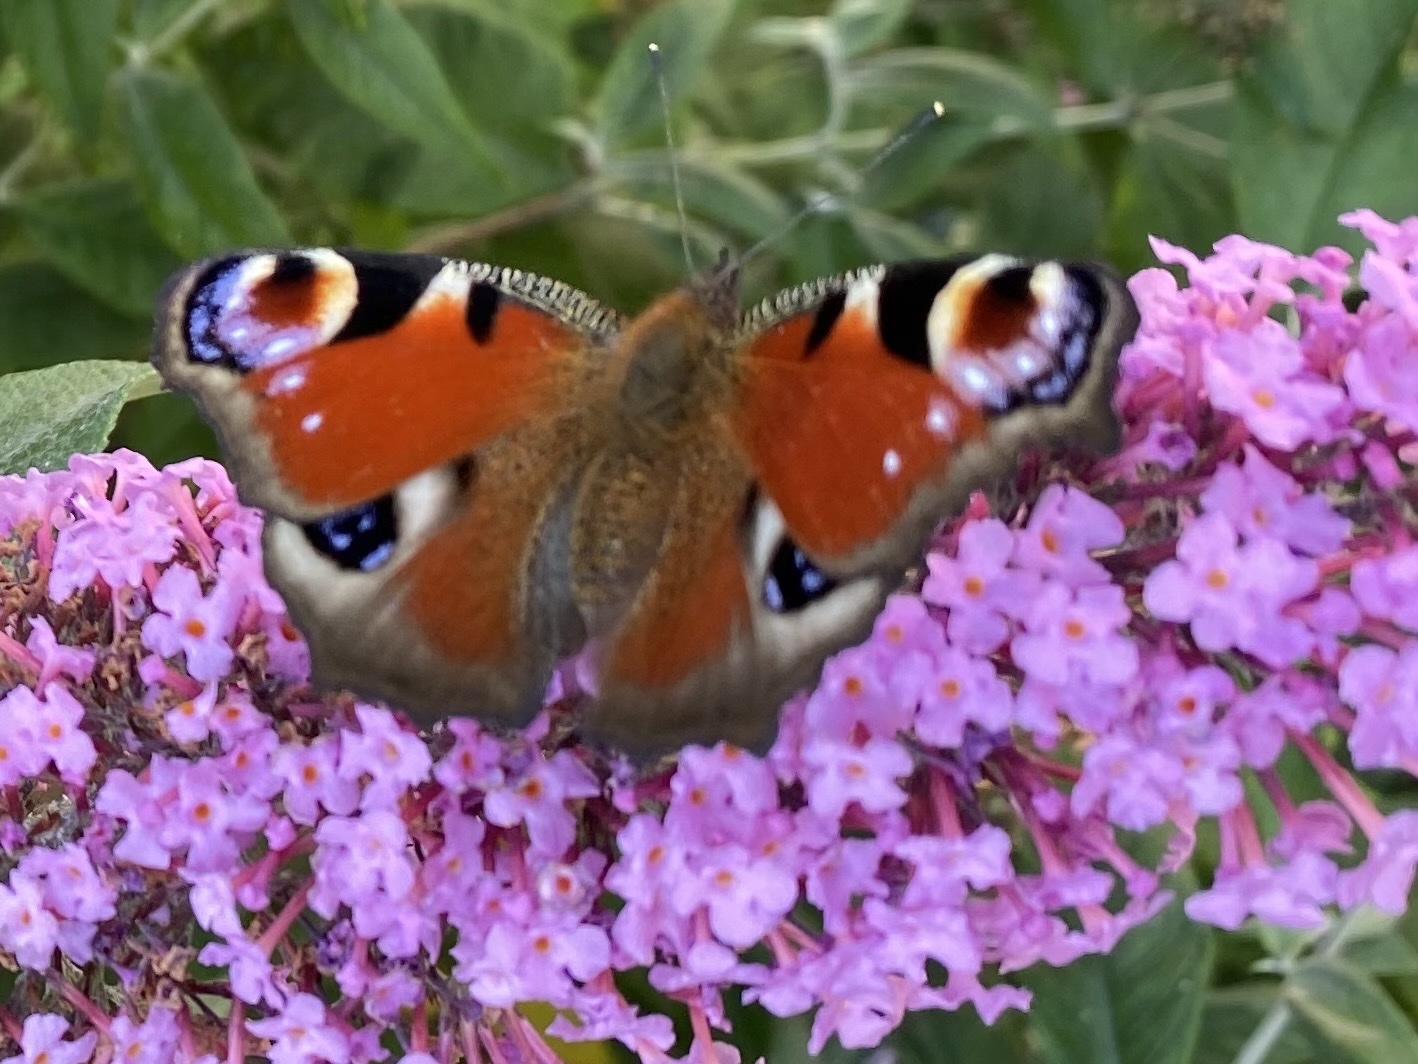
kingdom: Animalia
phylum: Arthropoda
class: Insecta
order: Lepidoptera
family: Nymphalidae
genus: Aglais
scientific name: Aglais io
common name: Peacock
